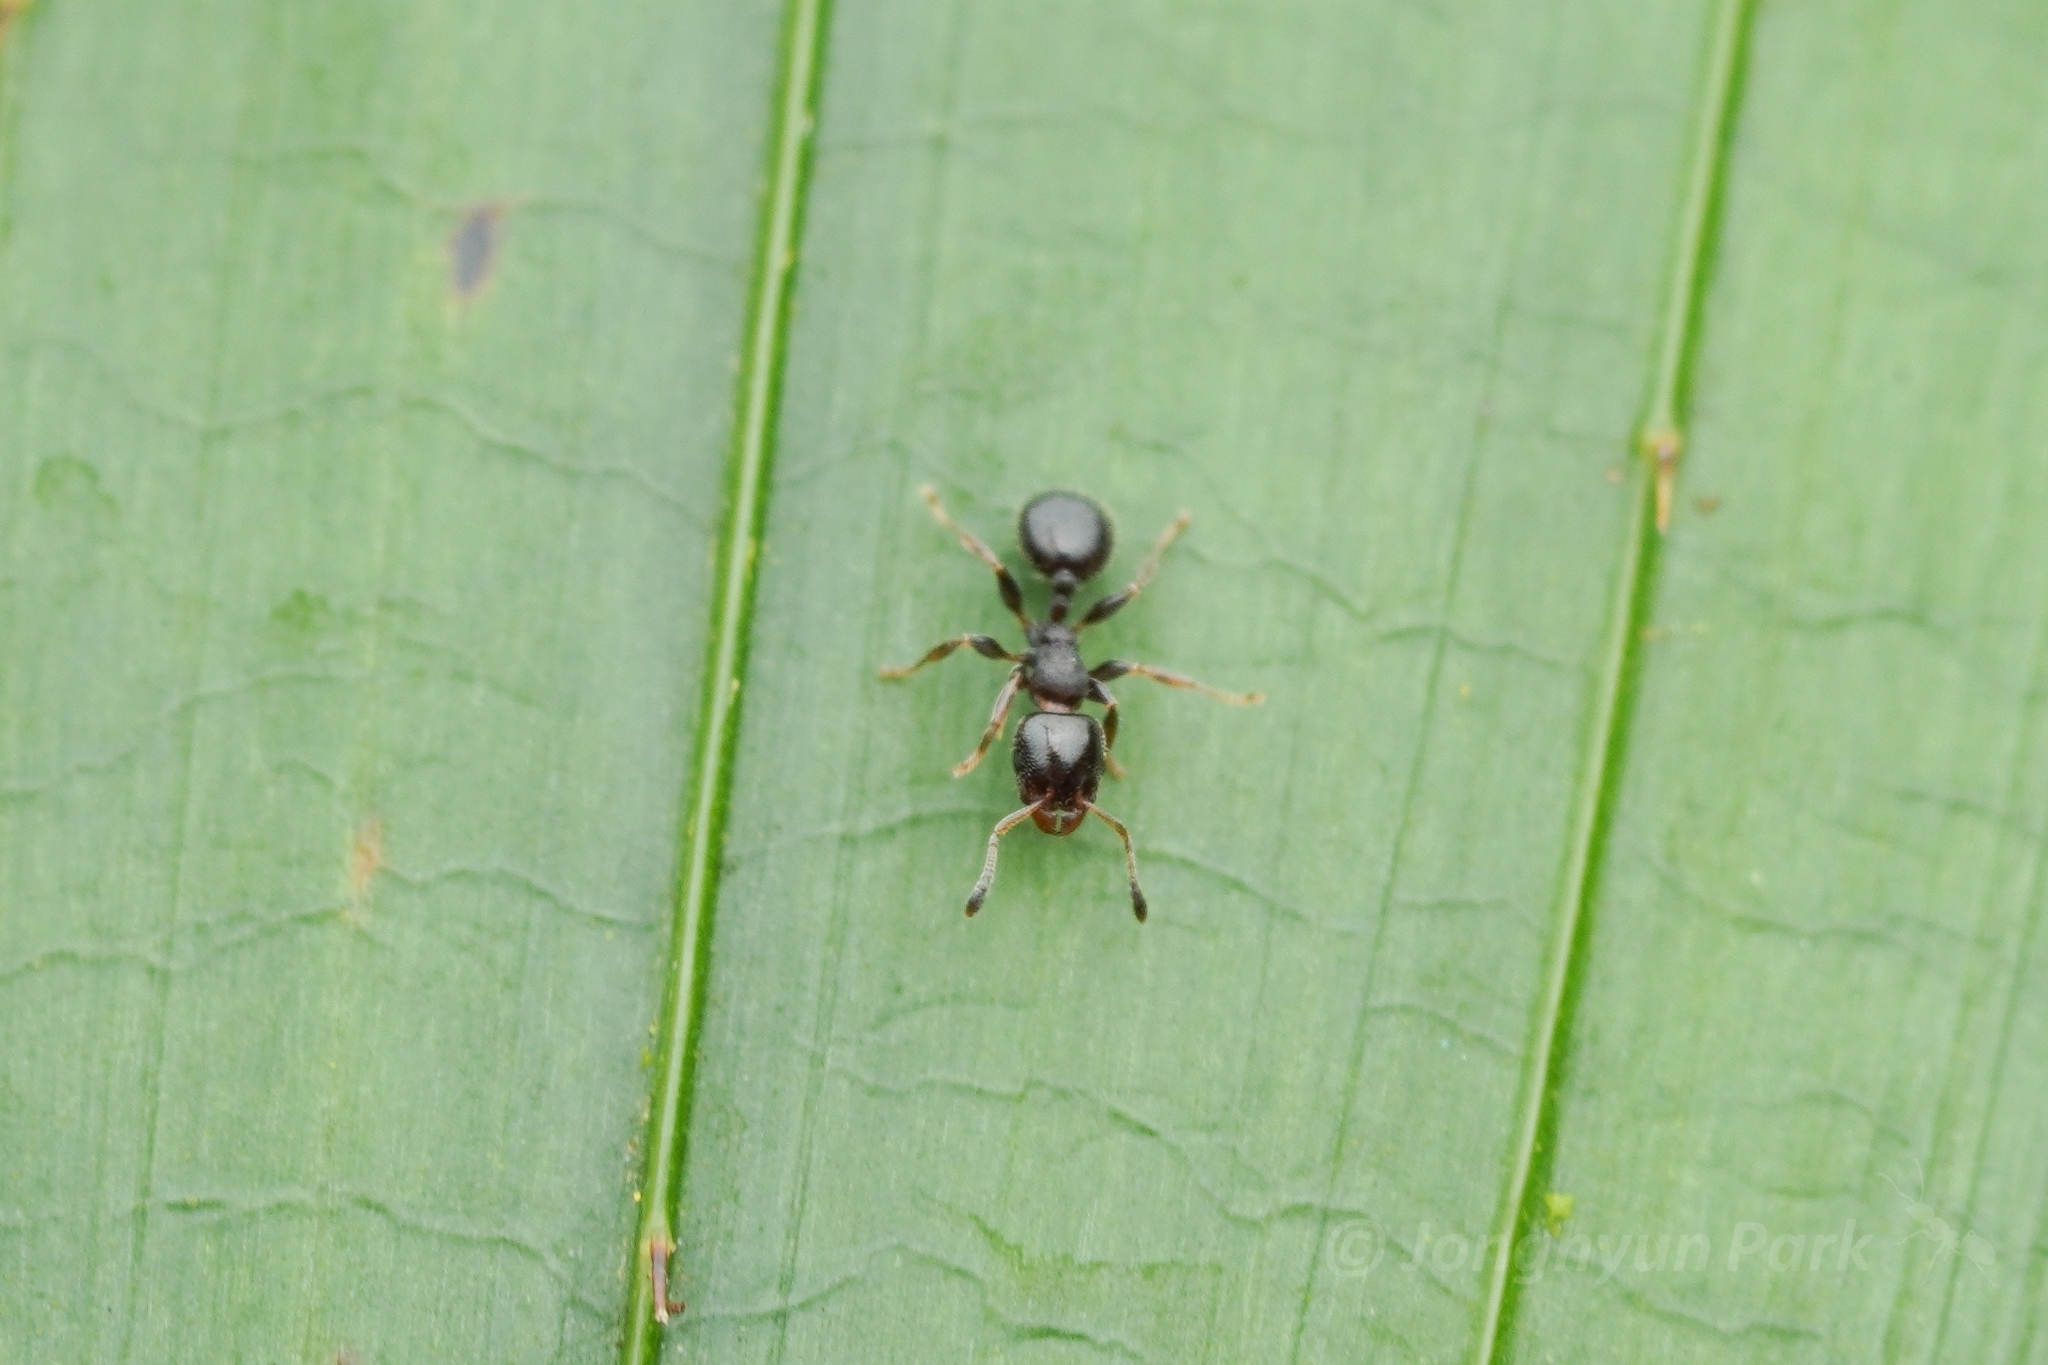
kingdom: Animalia
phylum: Arthropoda
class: Insecta
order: Hymenoptera
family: Formicidae
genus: Gauromyrmex
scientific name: Gauromyrmex
